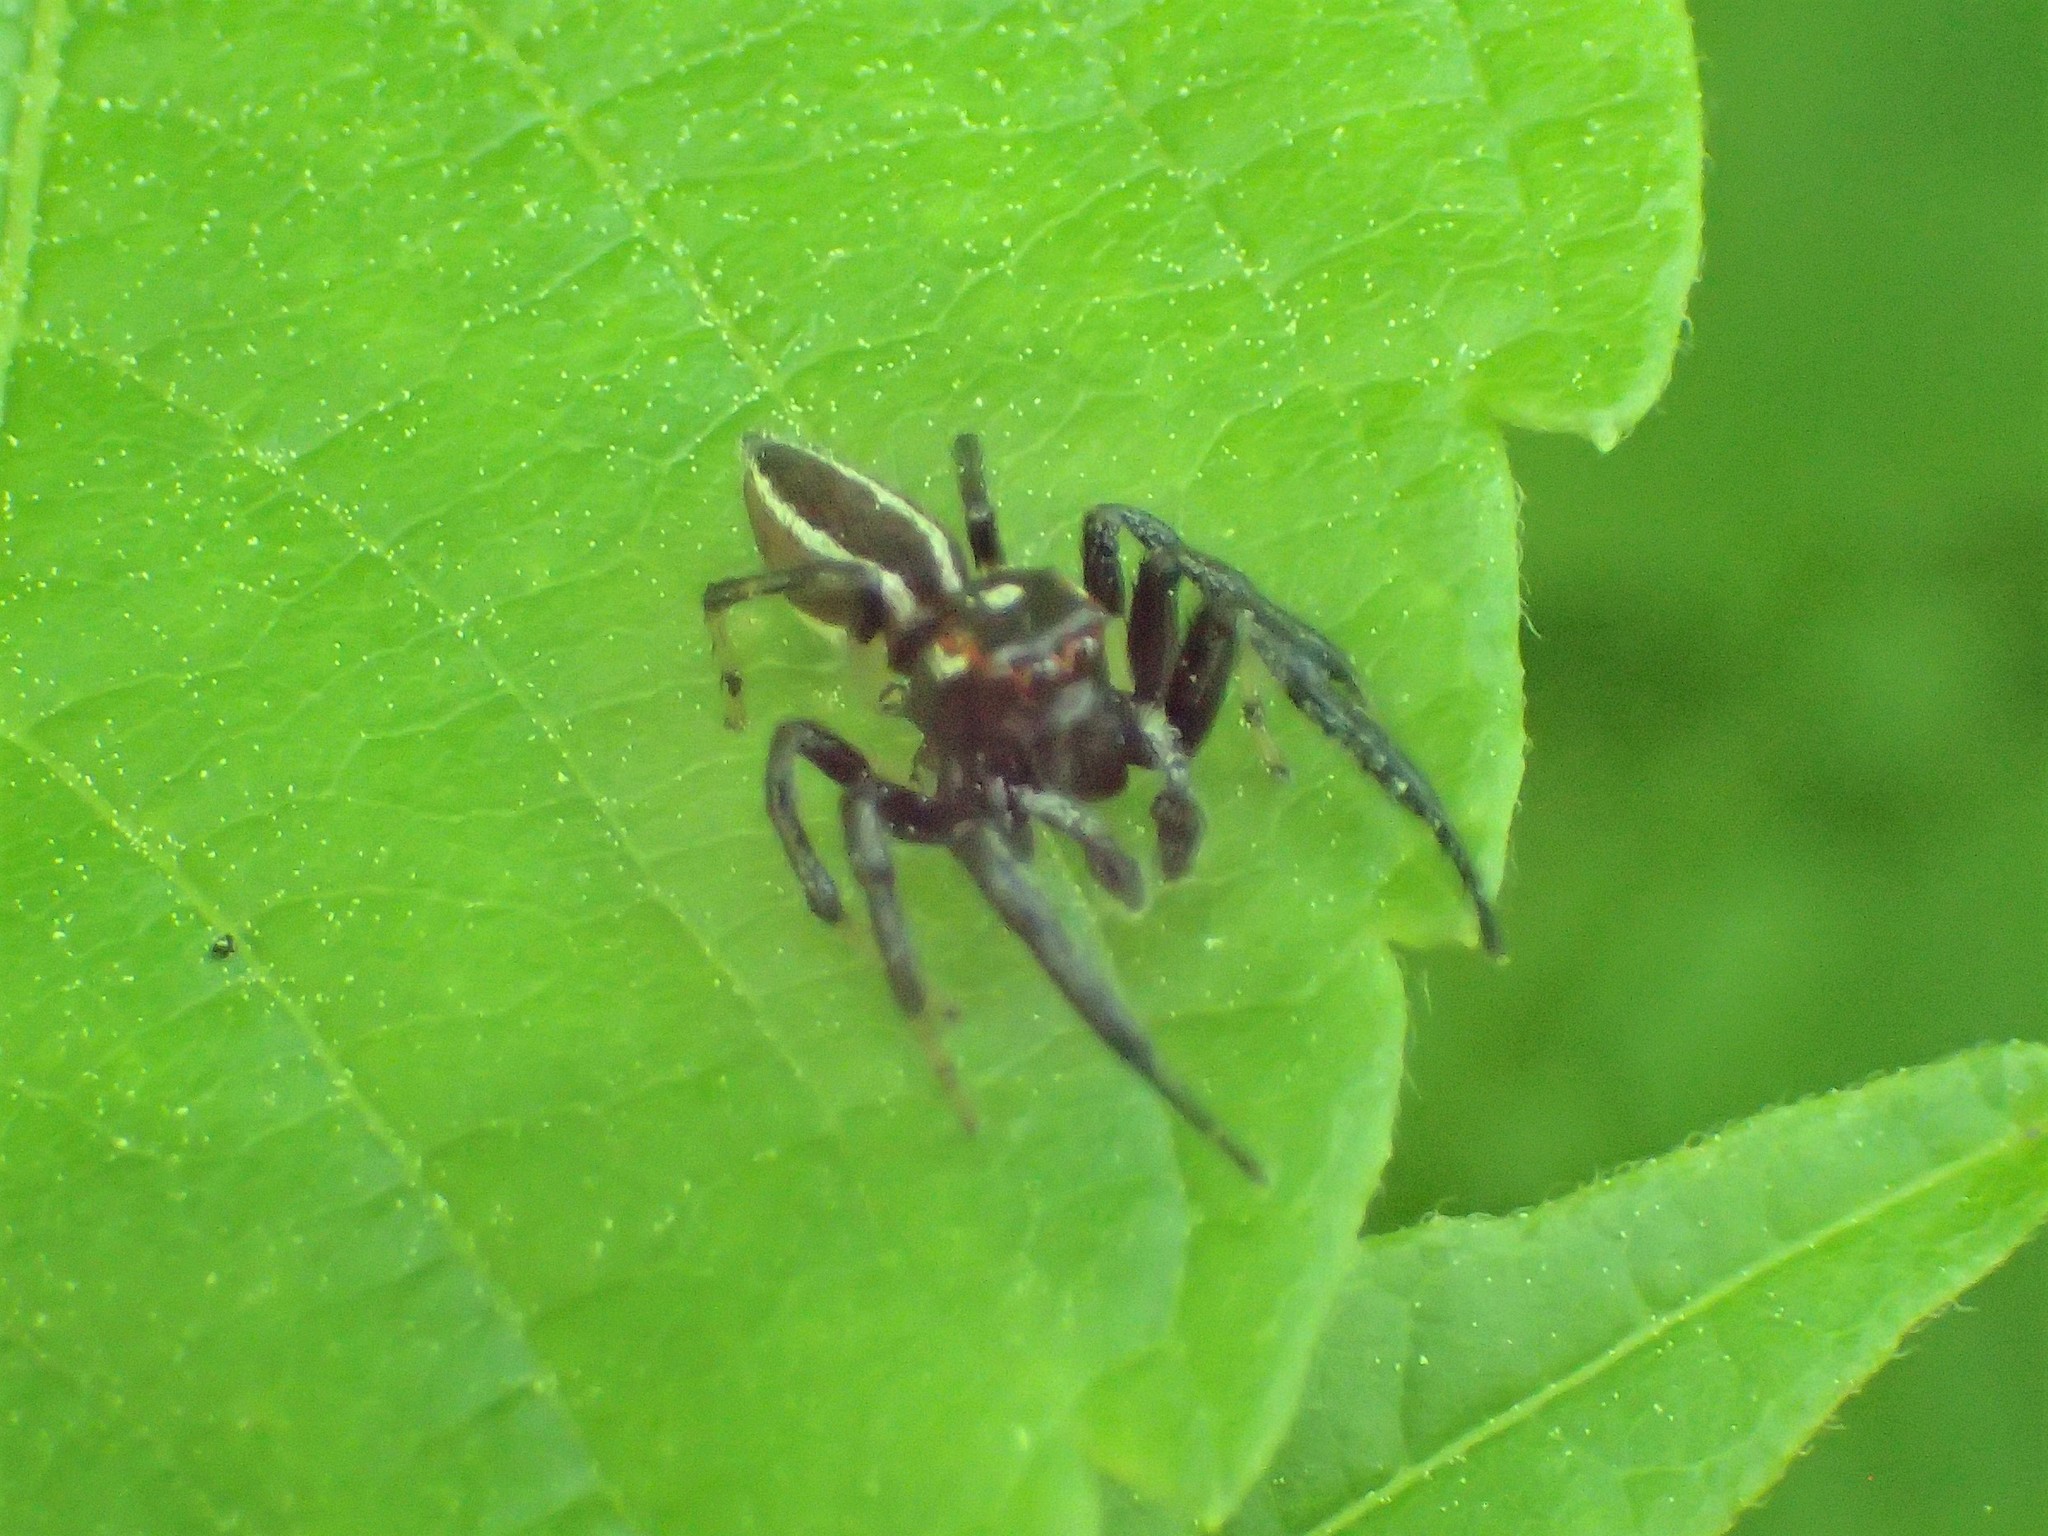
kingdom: Animalia
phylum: Arthropoda
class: Arachnida
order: Araneae
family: Salticidae
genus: Colonus
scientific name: Colonus sylvanus
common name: Jumping spiders
